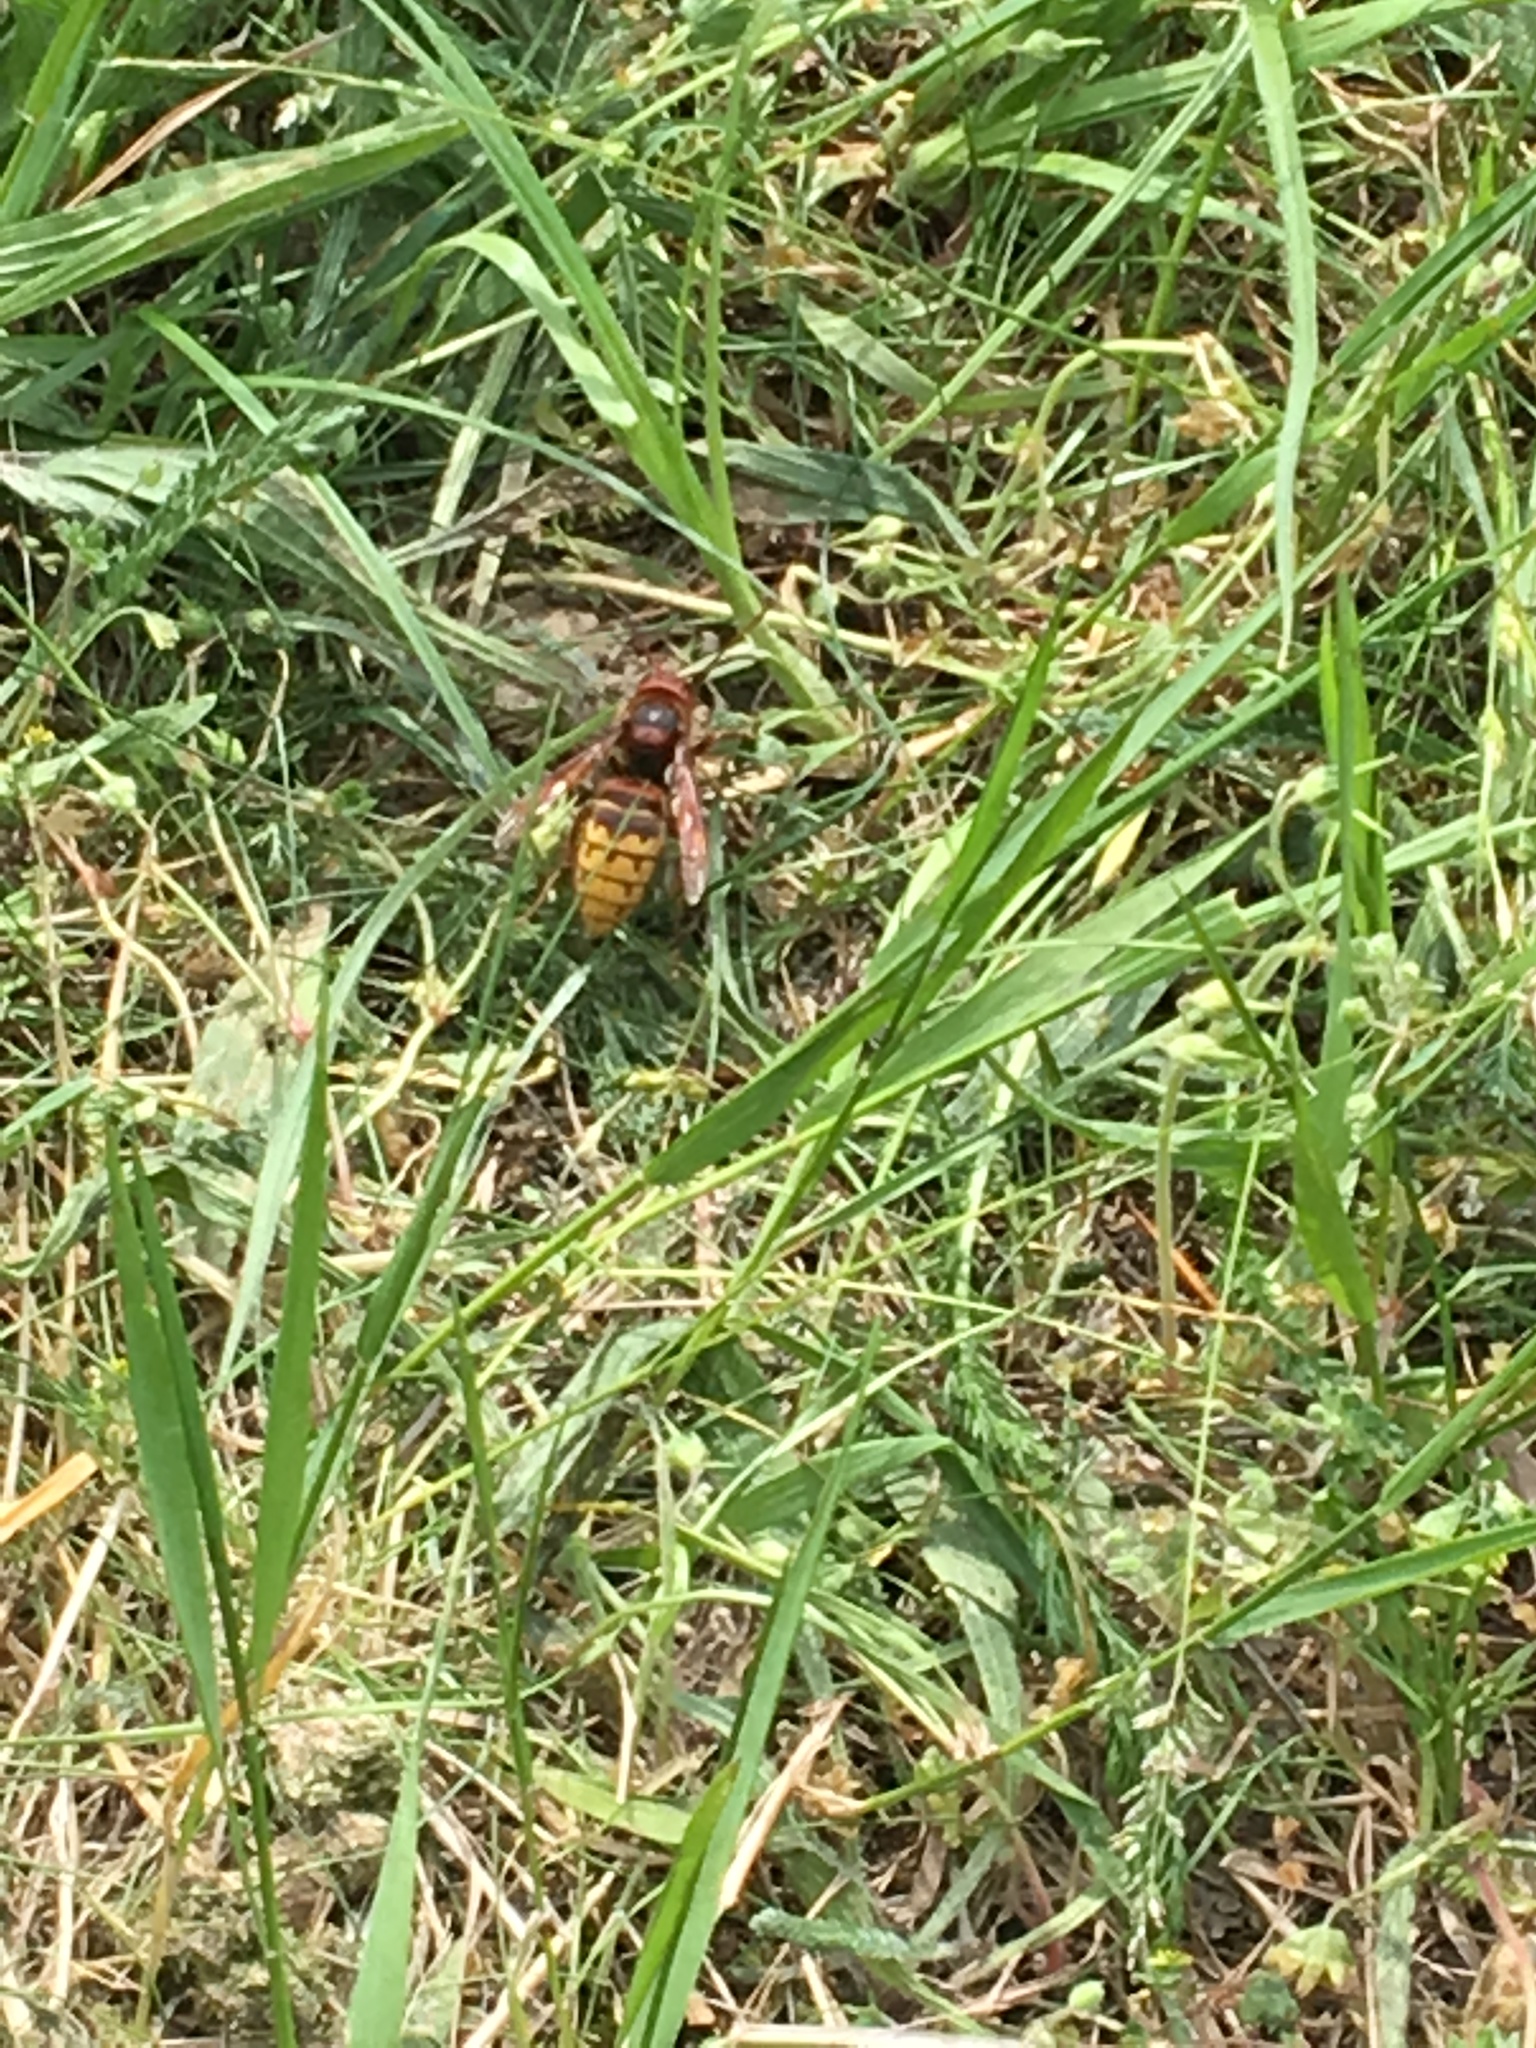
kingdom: Animalia
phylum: Arthropoda
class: Insecta
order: Hymenoptera
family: Vespidae
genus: Vespa
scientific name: Vespa crabro
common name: Hornet
